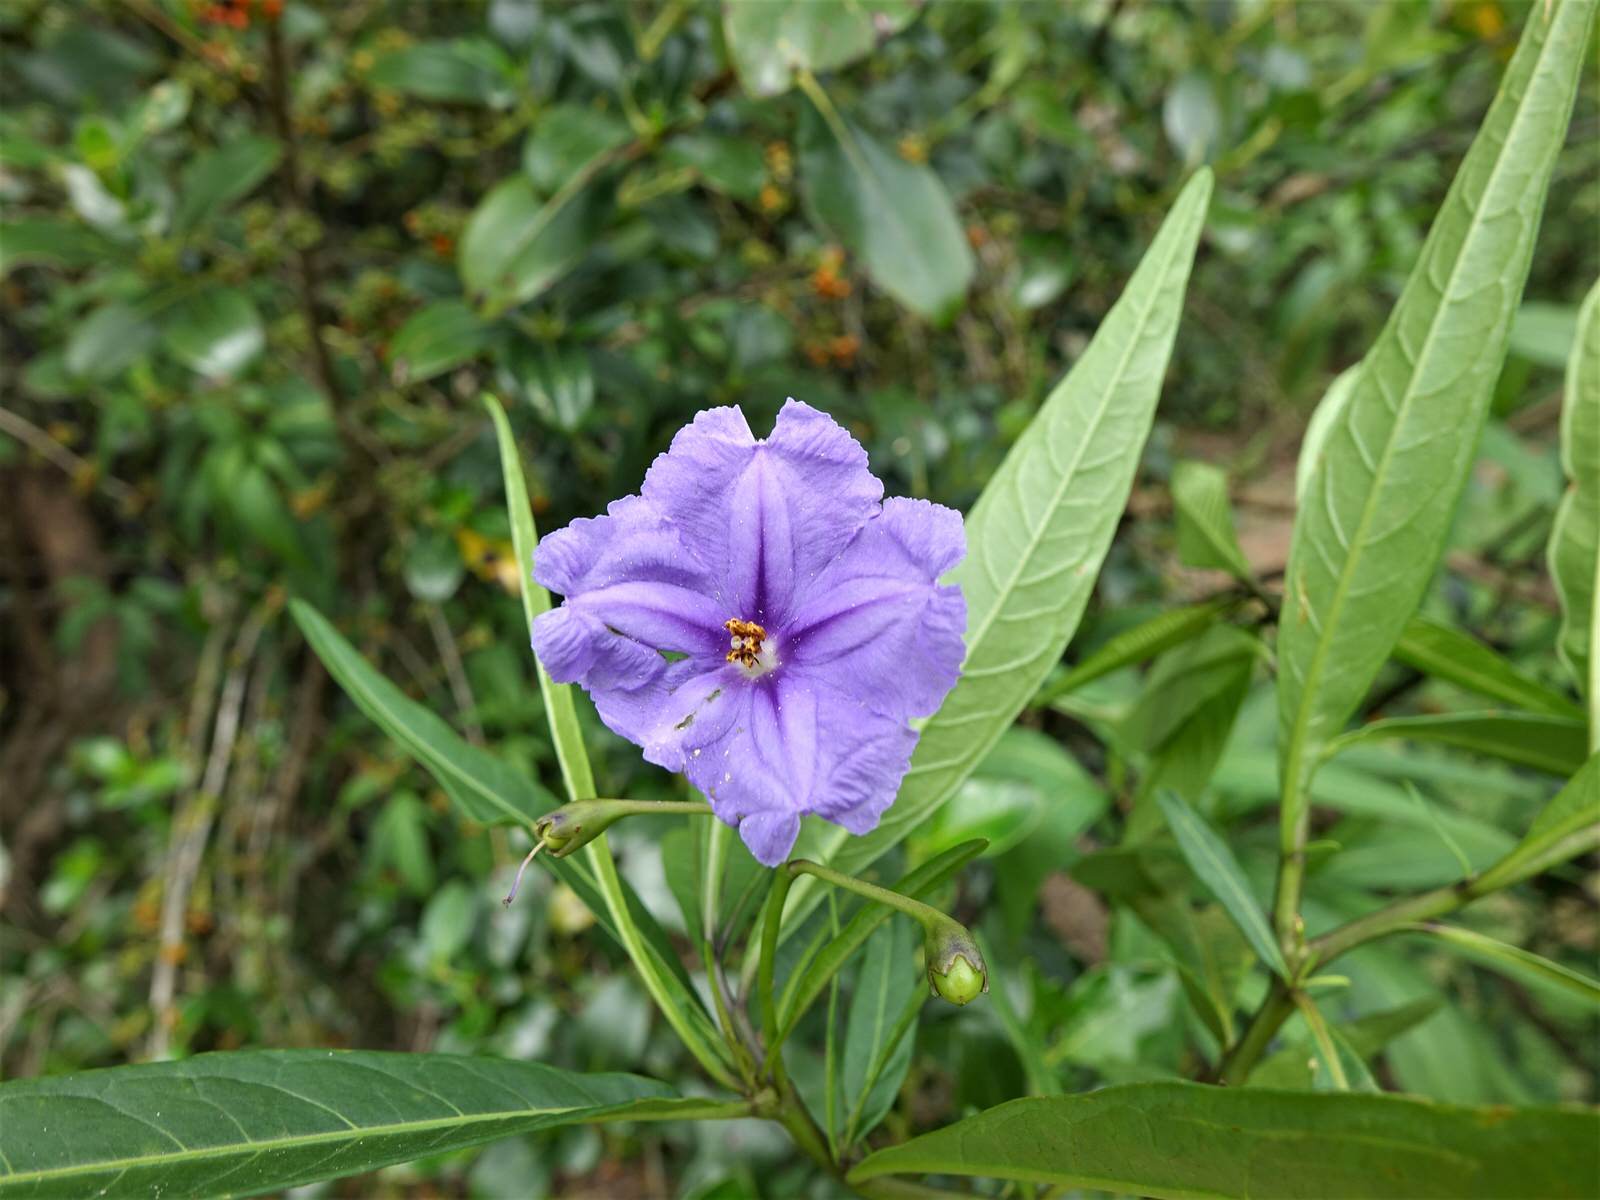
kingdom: Plantae
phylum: Tracheophyta
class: Magnoliopsida
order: Solanales
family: Solanaceae
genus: Solanum
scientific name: Solanum laciniatum
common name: Kangaroo-apple
